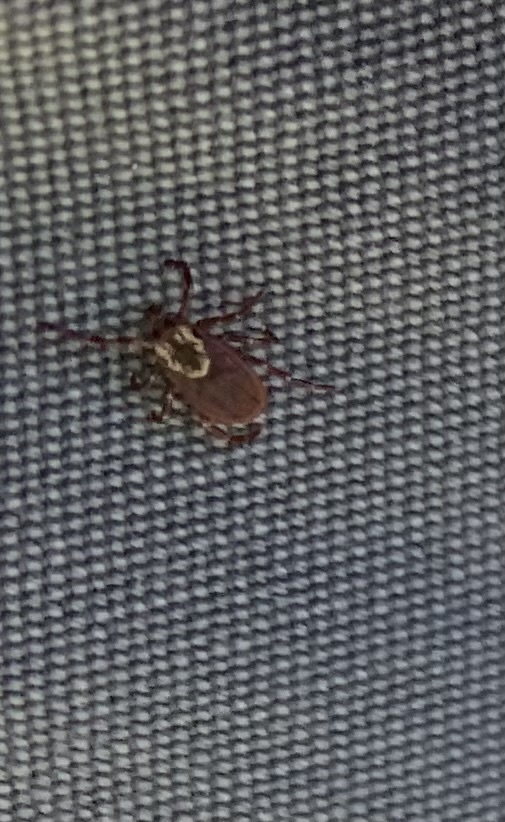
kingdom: Animalia
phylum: Arthropoda
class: Arachnida
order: Ixodida
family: Ixodidae
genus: Dermacentor
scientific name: Dermacentor variabilis
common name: American dog tick
